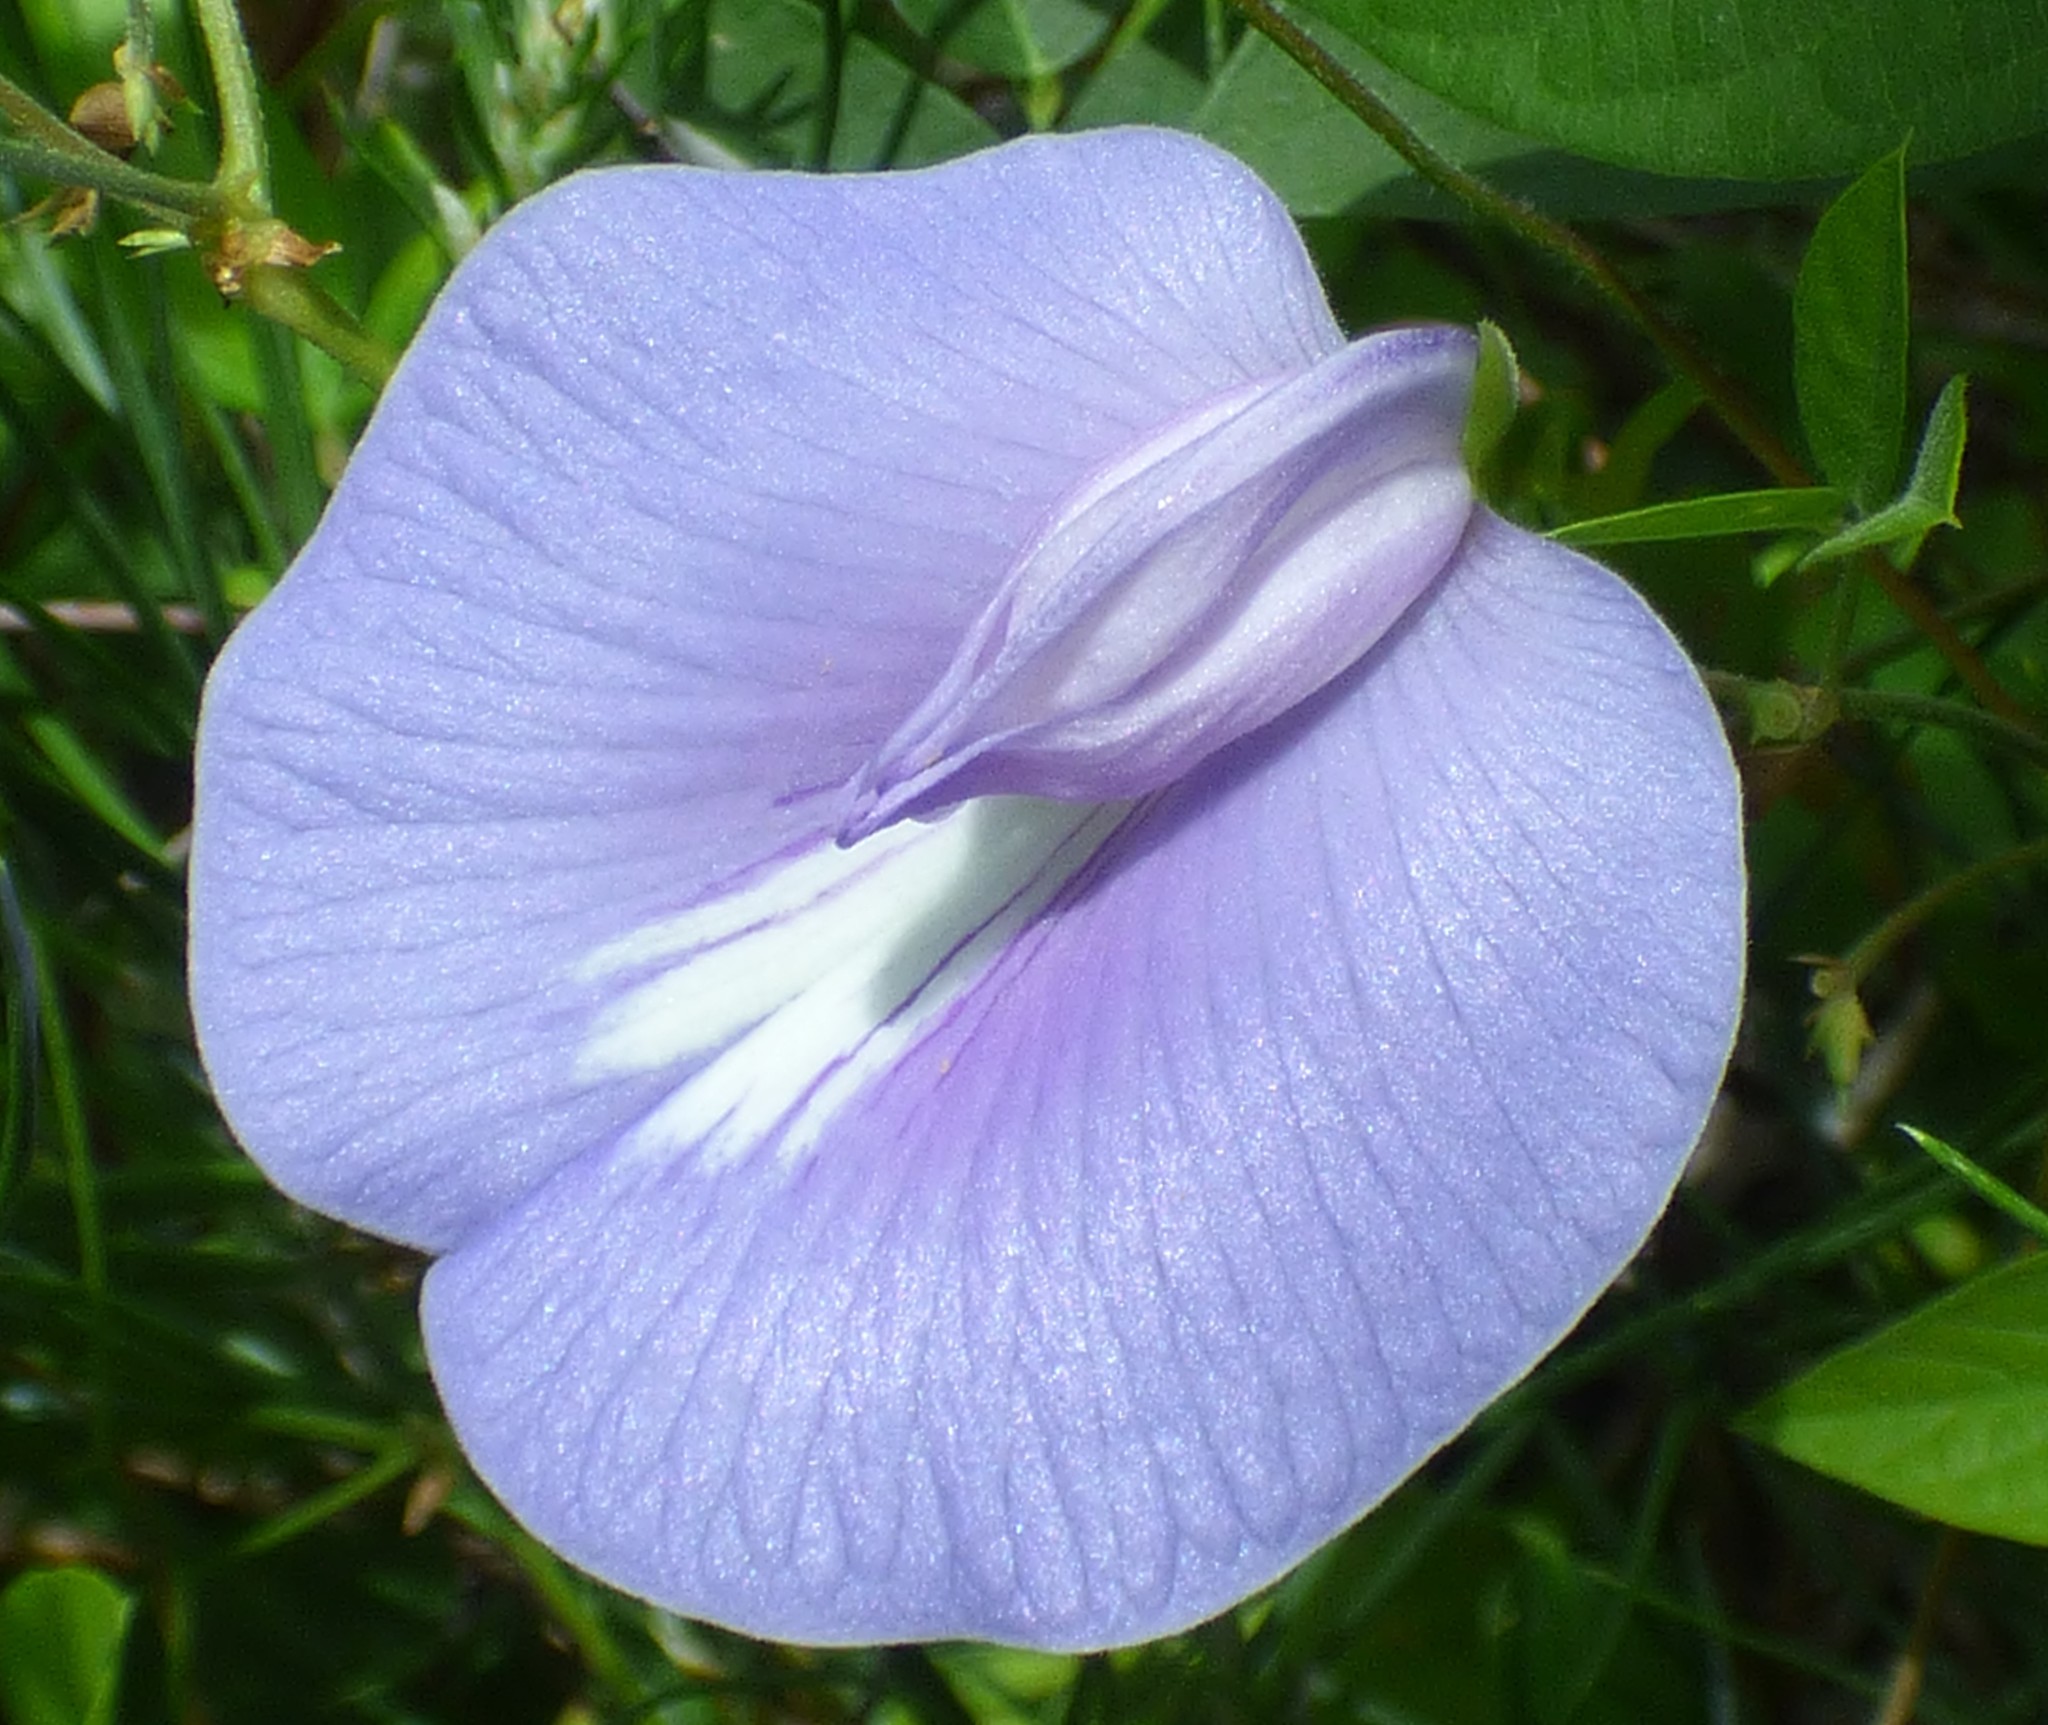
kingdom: Plantae
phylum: Tracheophyta
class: Magnoliopsida
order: Fabales
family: Fabaceae
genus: Centrosema
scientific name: Centrosema virginianum
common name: Butterfly-pea
